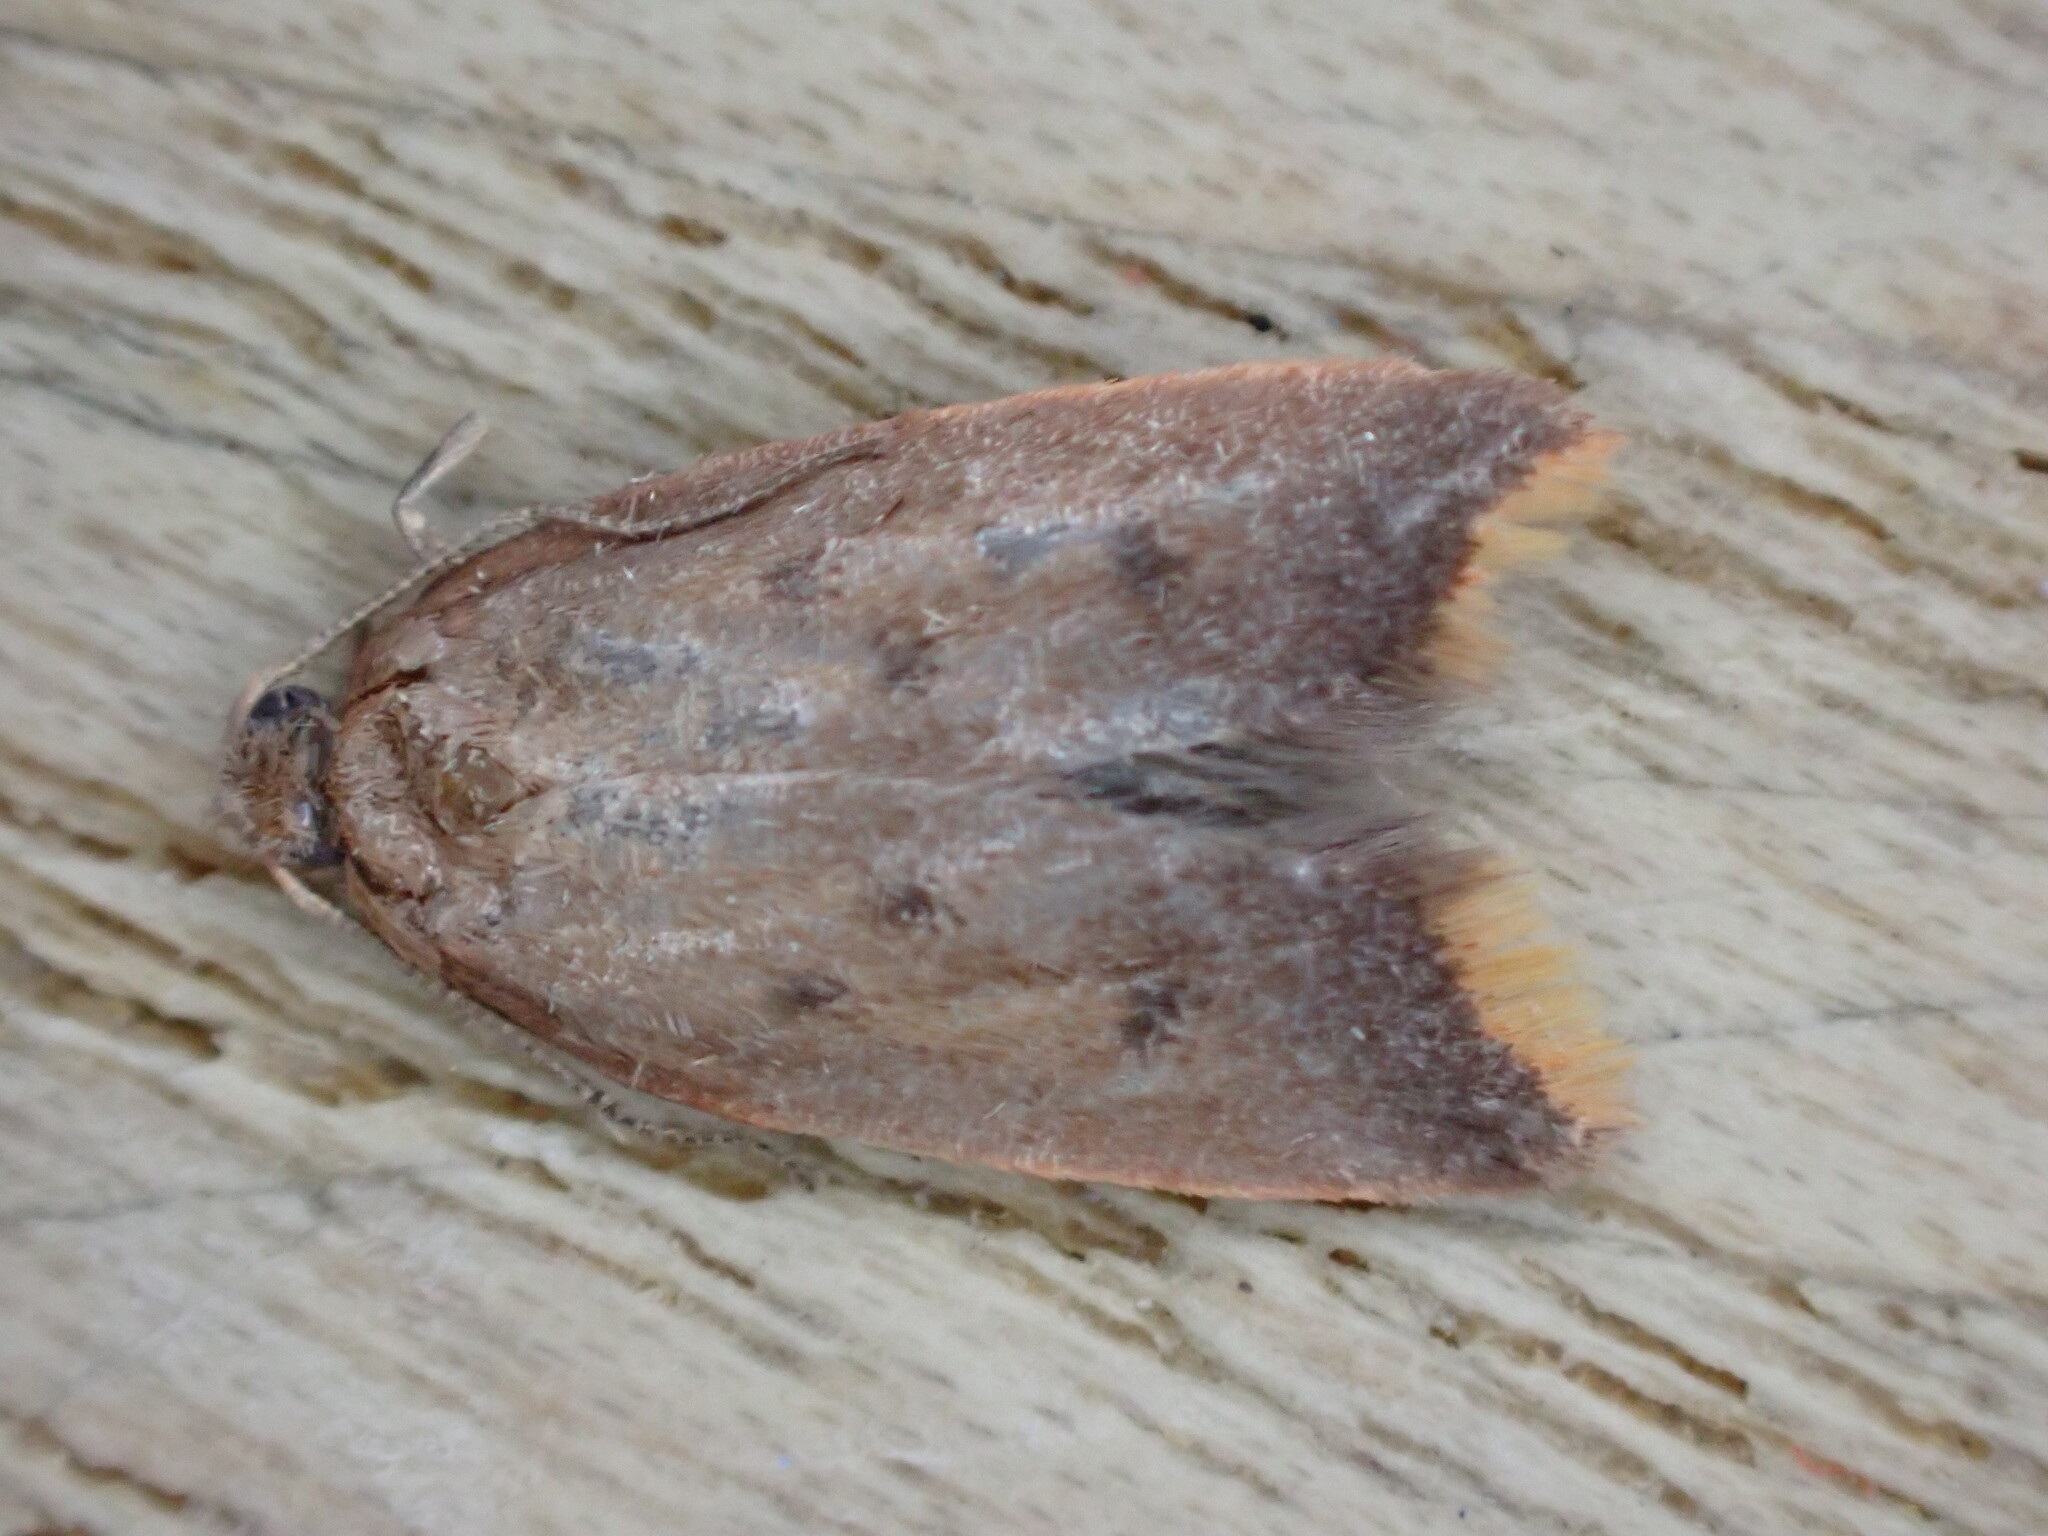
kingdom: Animalia
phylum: Arthropoda
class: Insecta
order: Lepidoptera
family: Oecophoridae
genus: Tachystola
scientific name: Tachystola acroxantha
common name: Ruddy streak
